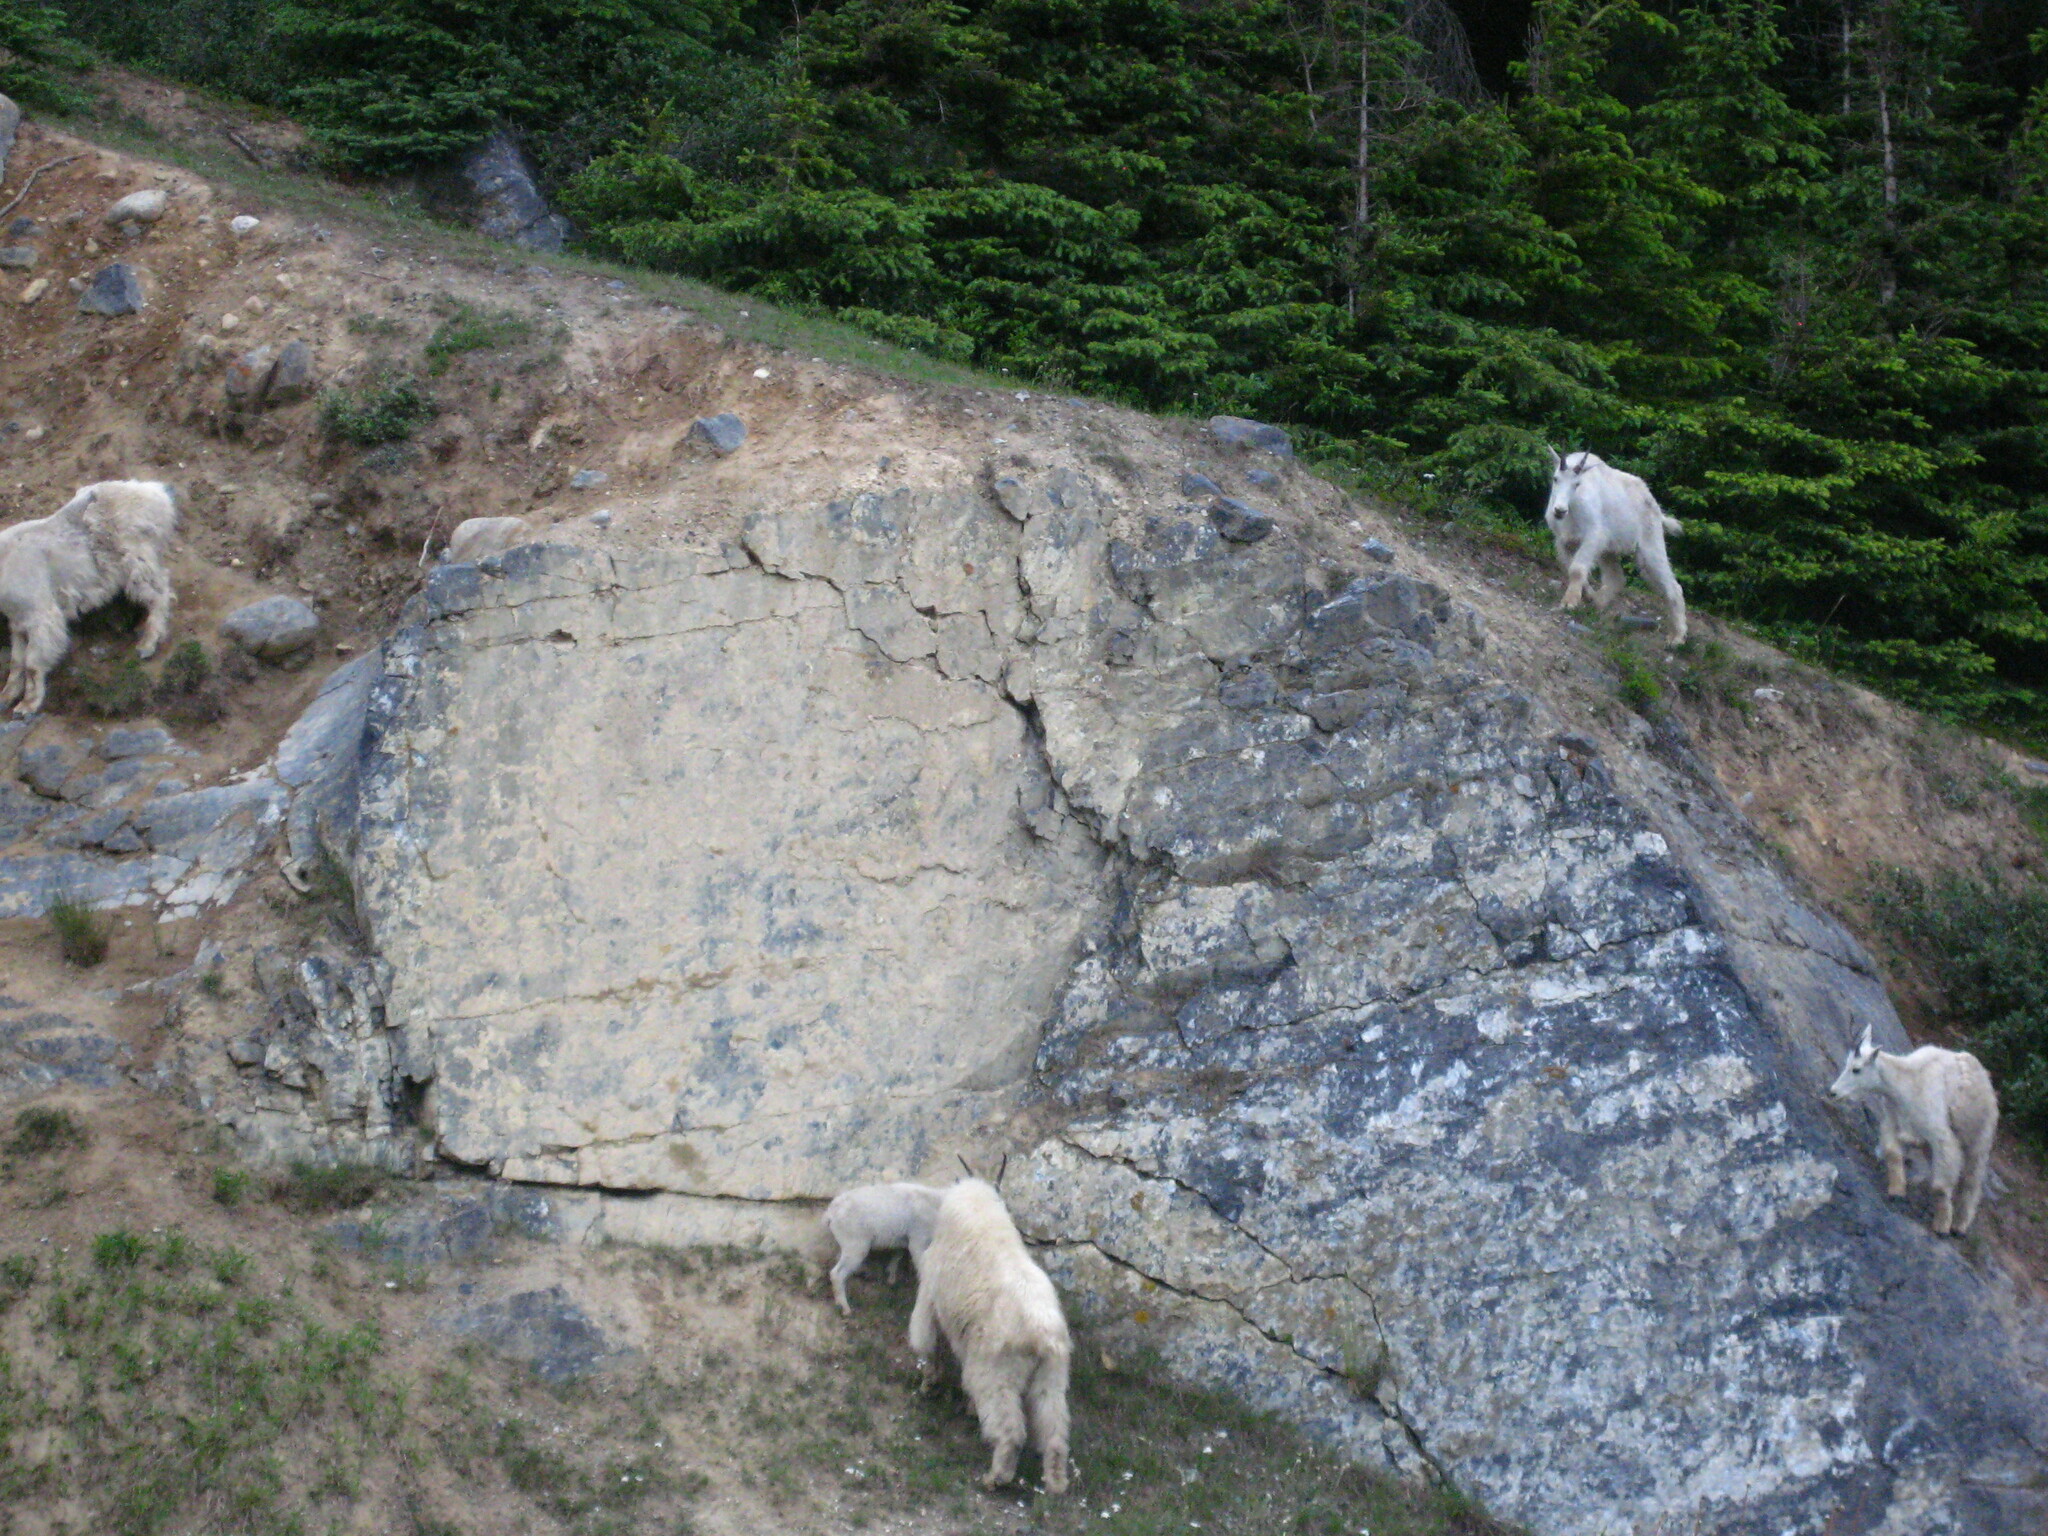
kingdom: Animalia
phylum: Chordata
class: Mammalia
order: Artiodactyla
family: Bovidae
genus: Oreamnos
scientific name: Oreamnos americanus
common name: Mountain goat
